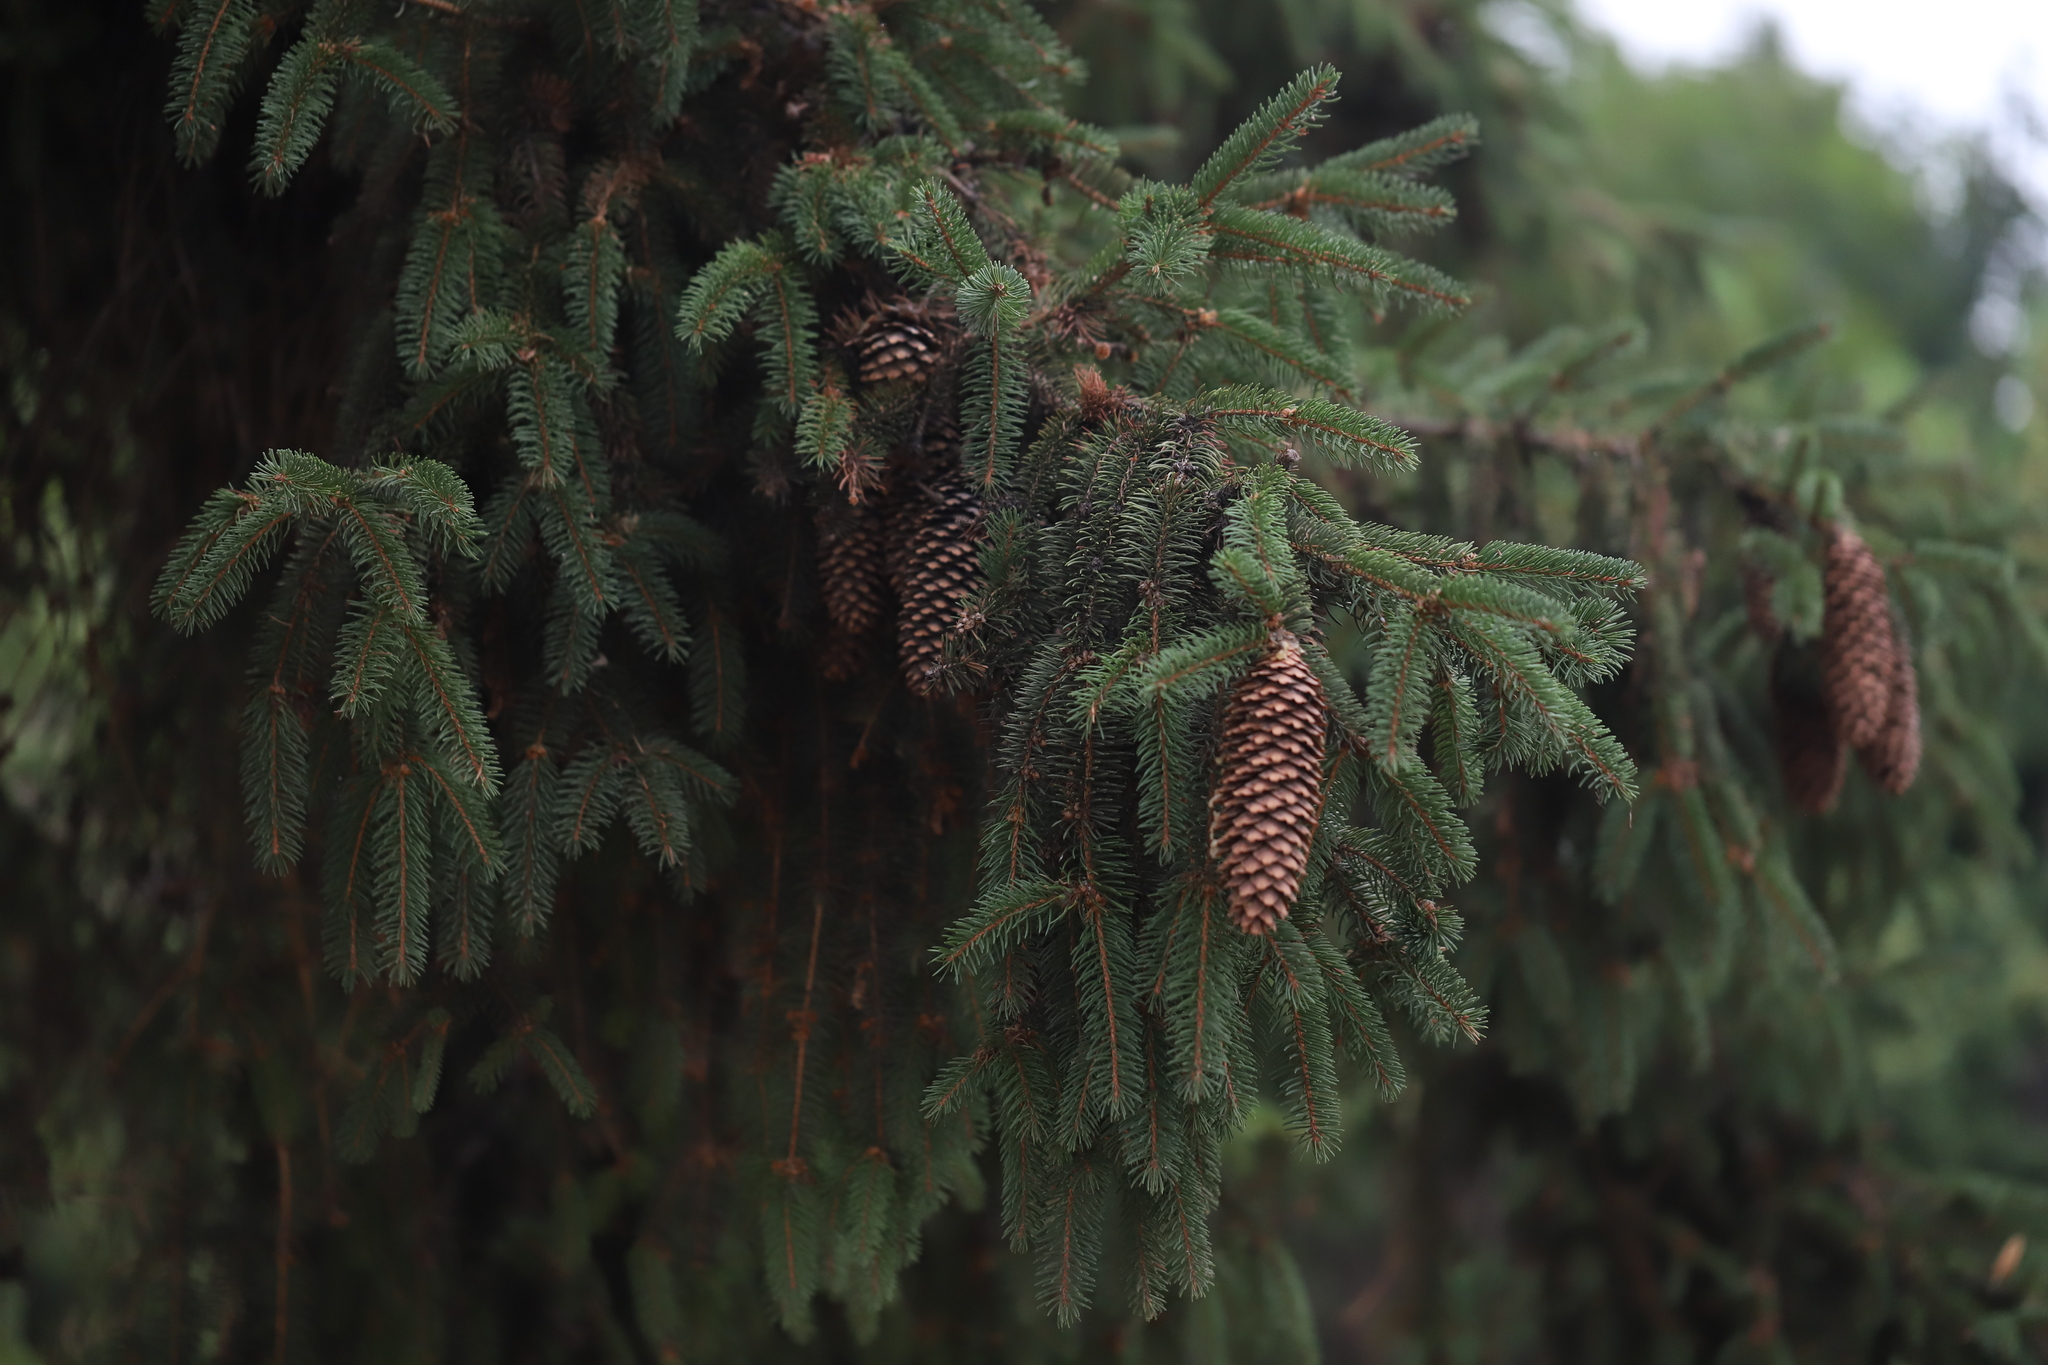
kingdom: Plantae
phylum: Tracheophyta
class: Pinopsida
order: Pinales
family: Pinaceae
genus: Picea
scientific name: Picea abies
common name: Norway spruce
